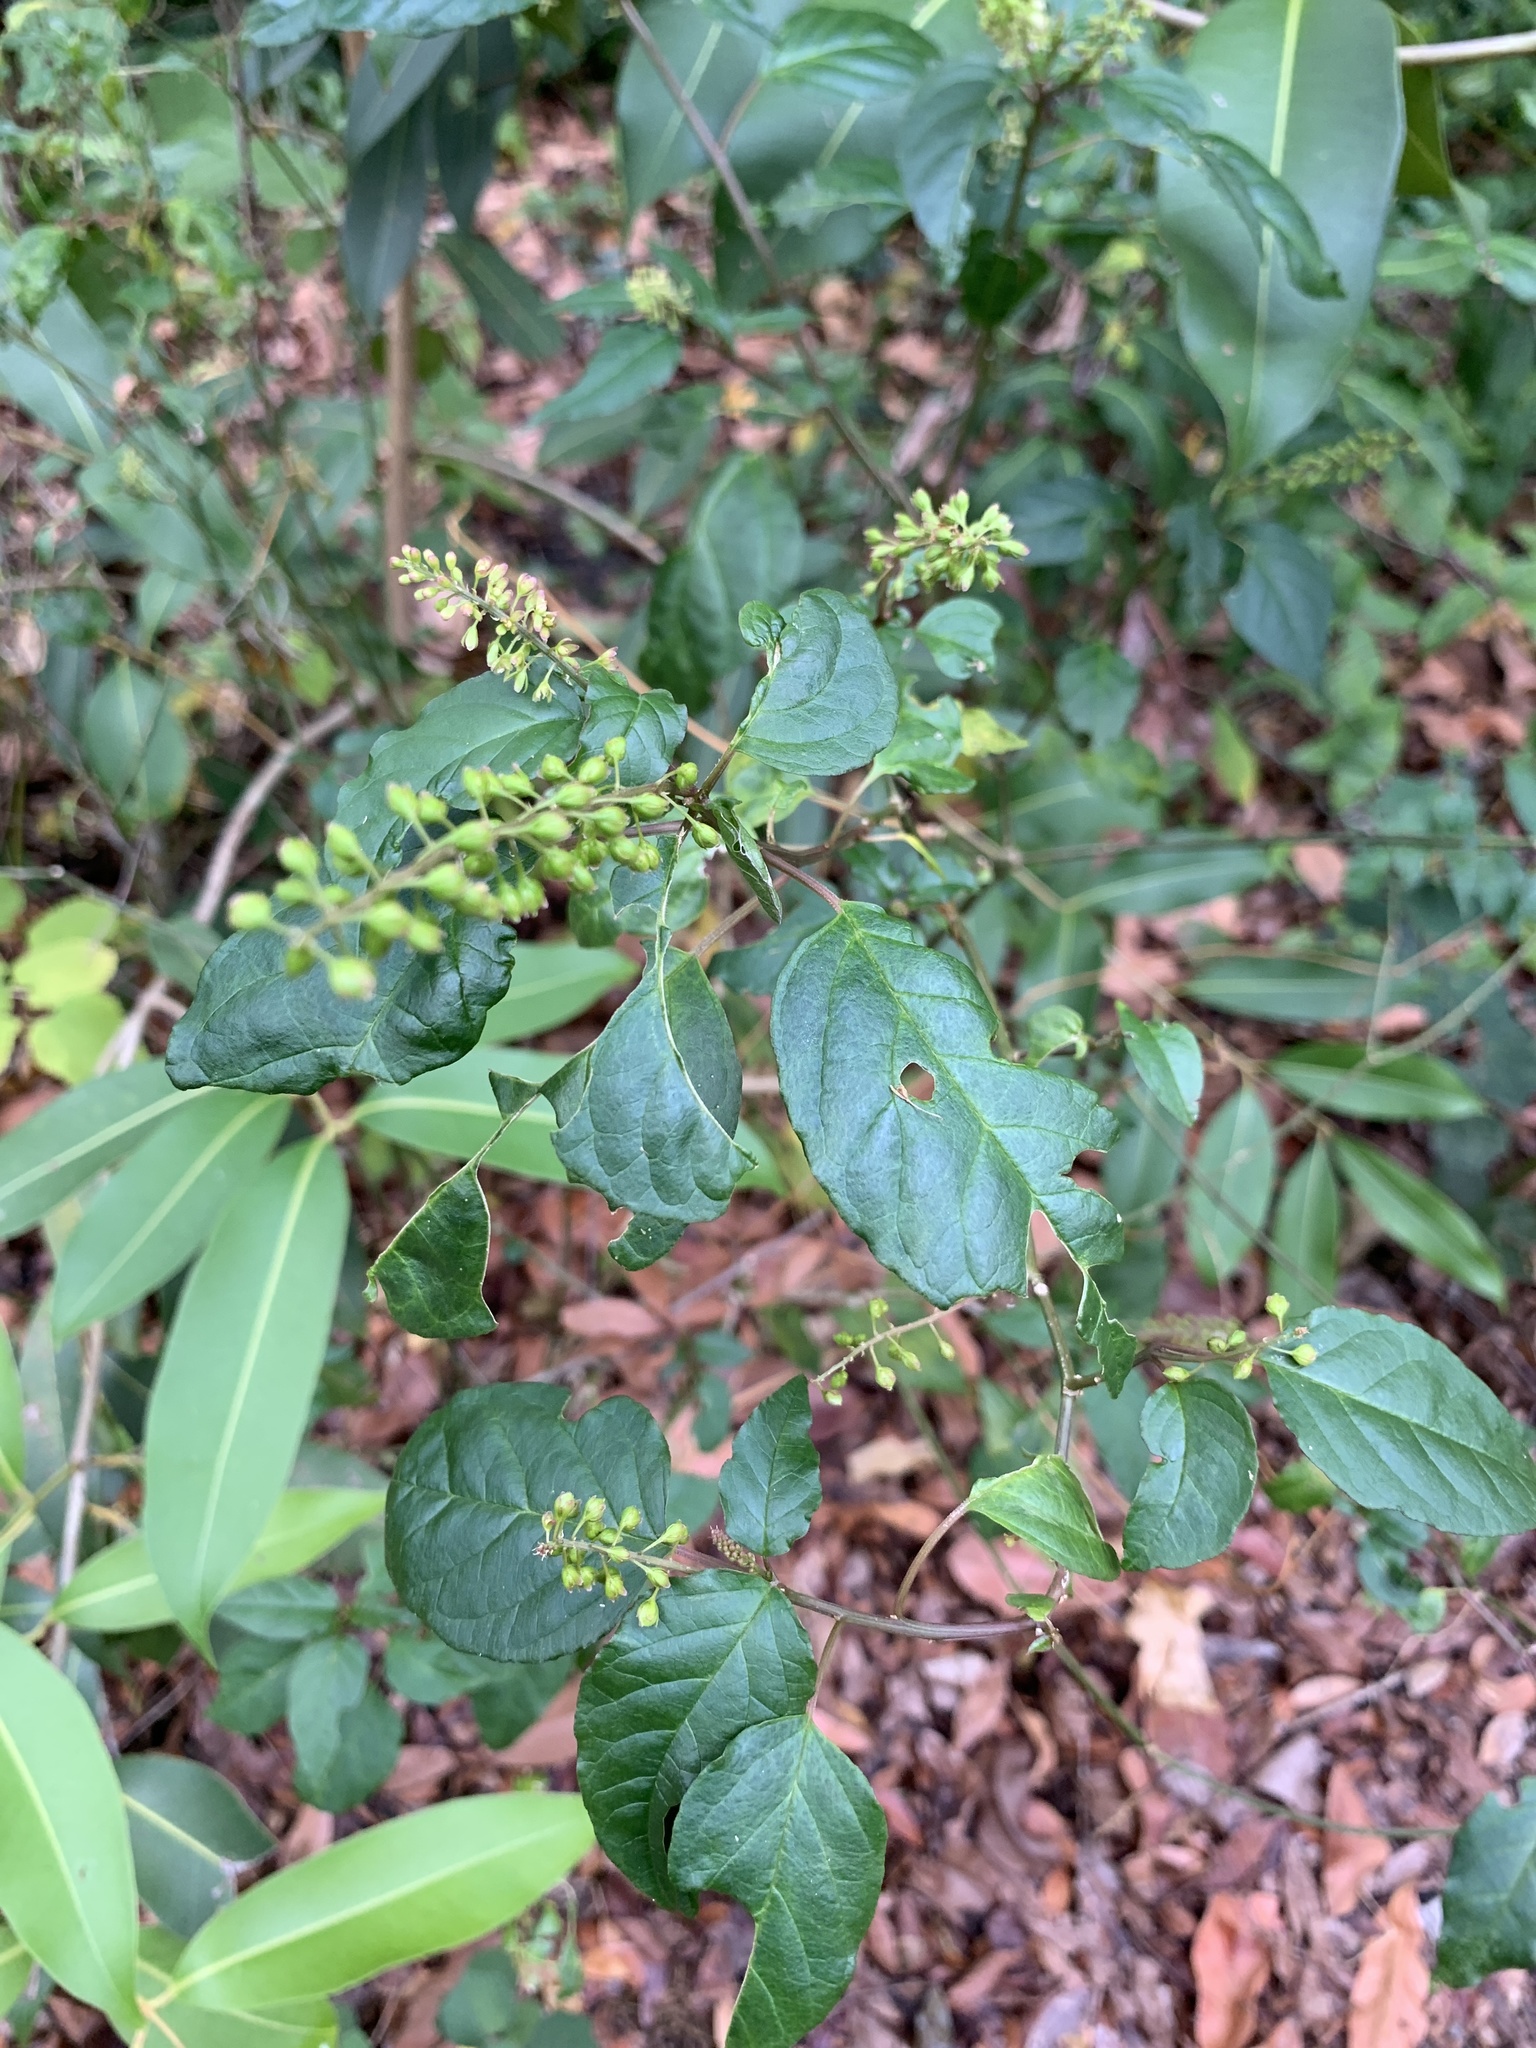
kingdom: Plantae
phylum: Tracheophyta
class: Magnoliopsida
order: Caryophyllales
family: Phytolaccaceae
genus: Rivina
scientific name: Rivina humilis
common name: Rougeplant
